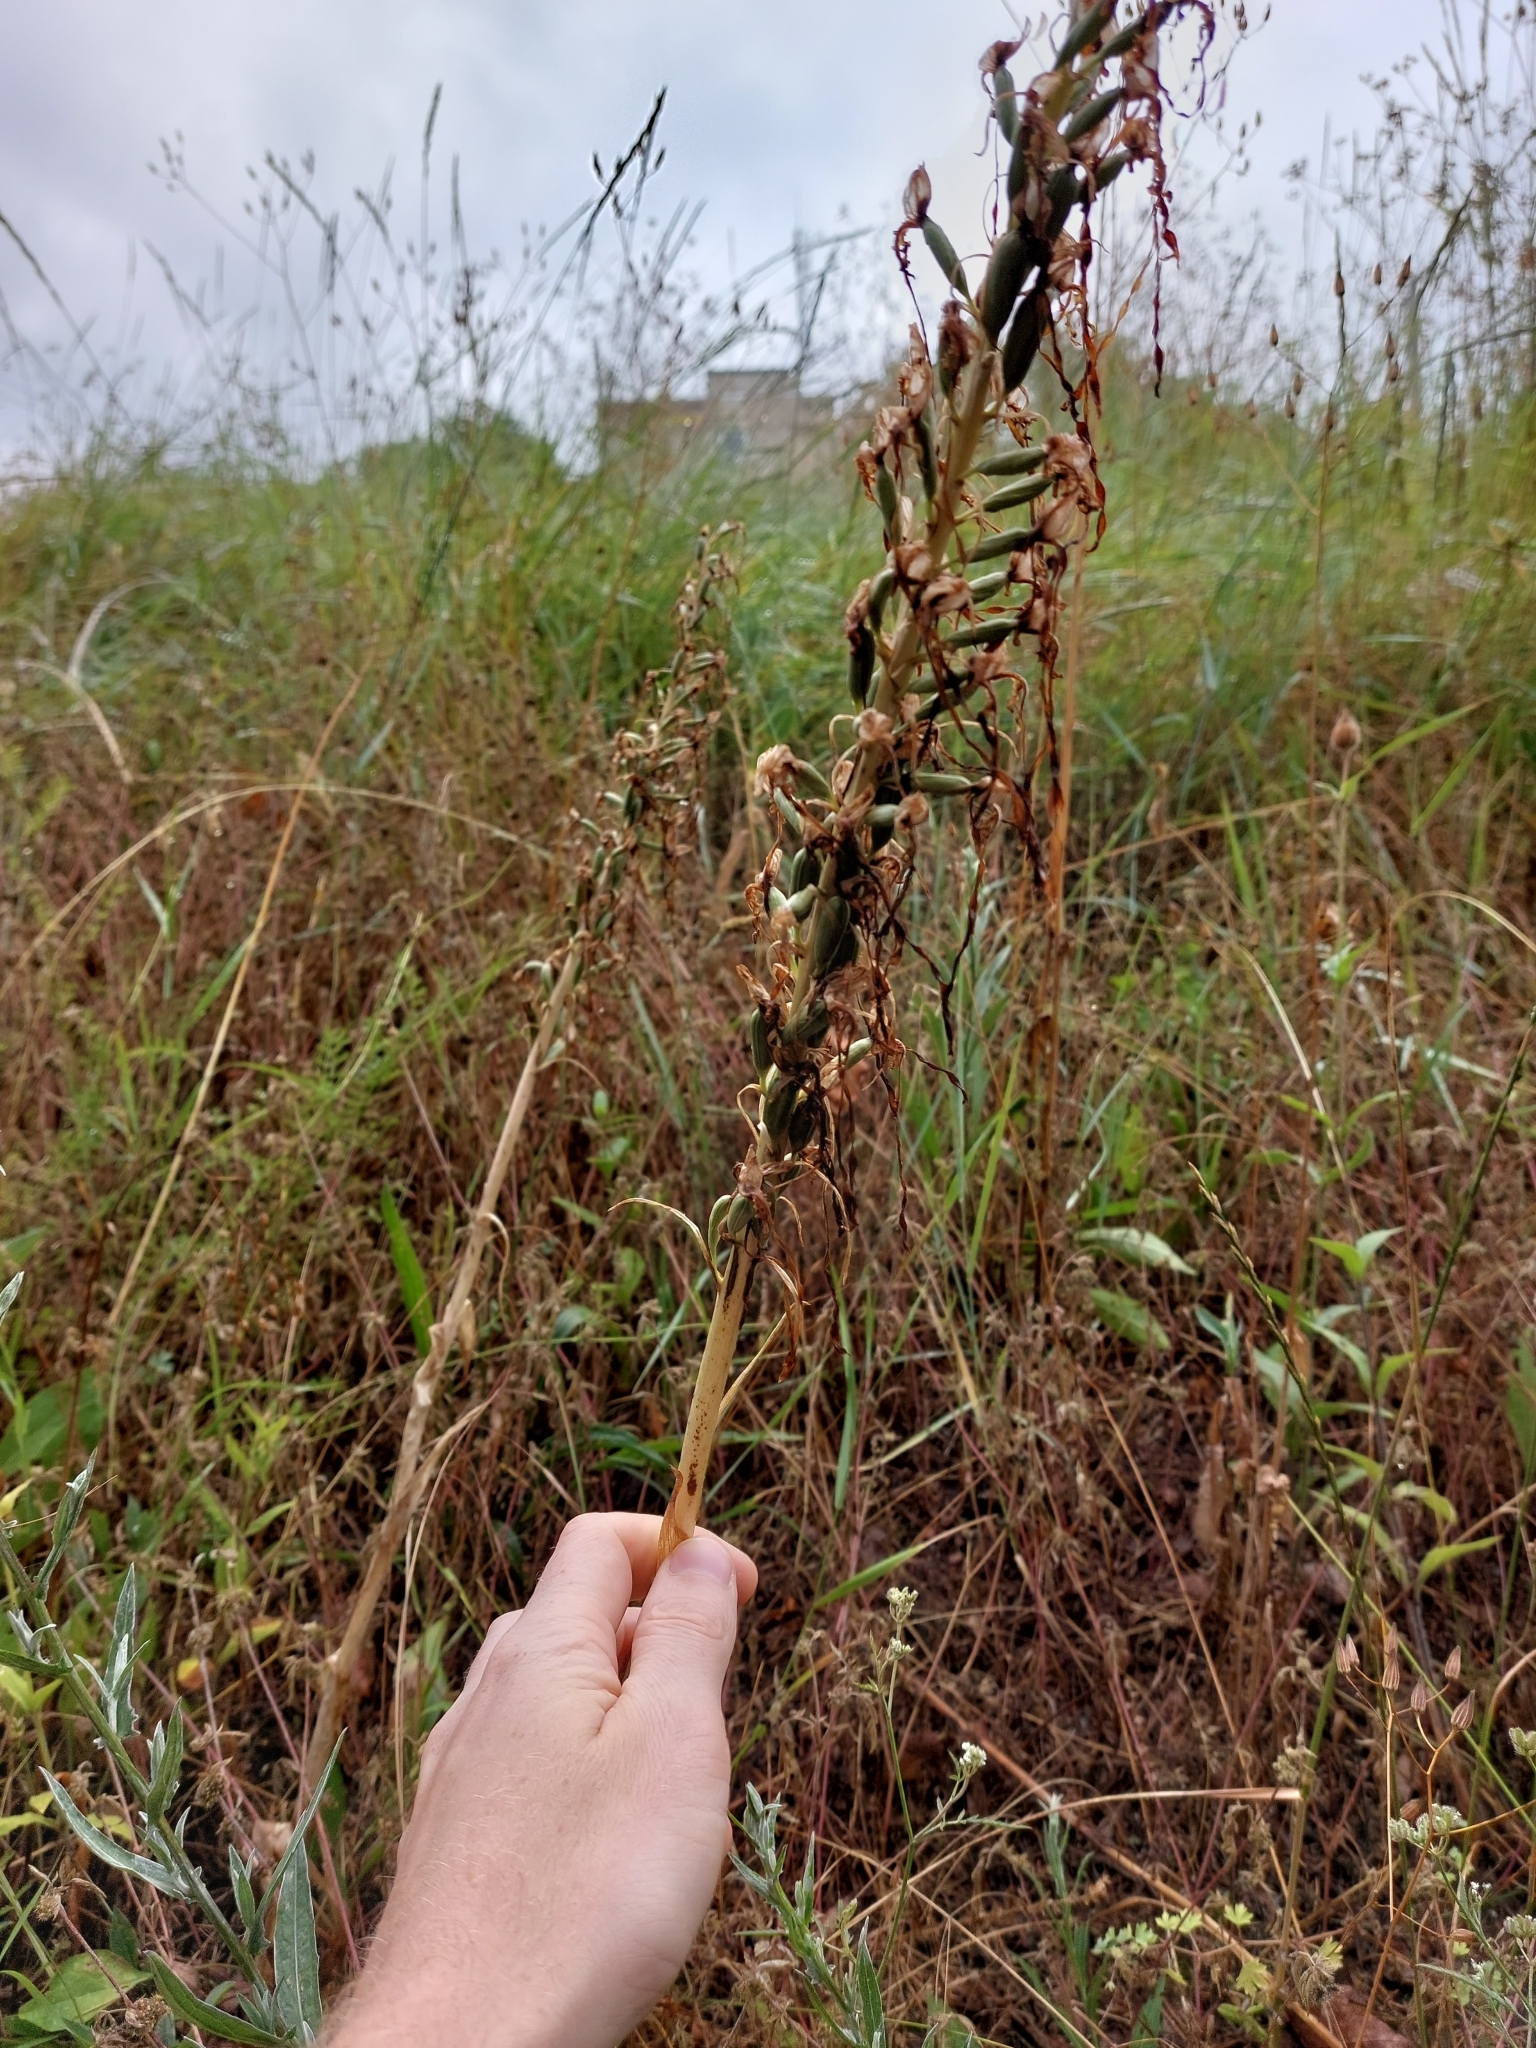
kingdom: Plantae
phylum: Tracheophyta
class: Liliopsida
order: Asparagales
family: Orchidaceae
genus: Himantoglossum
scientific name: Himantoglossum hircinum
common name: Lizard orchid
